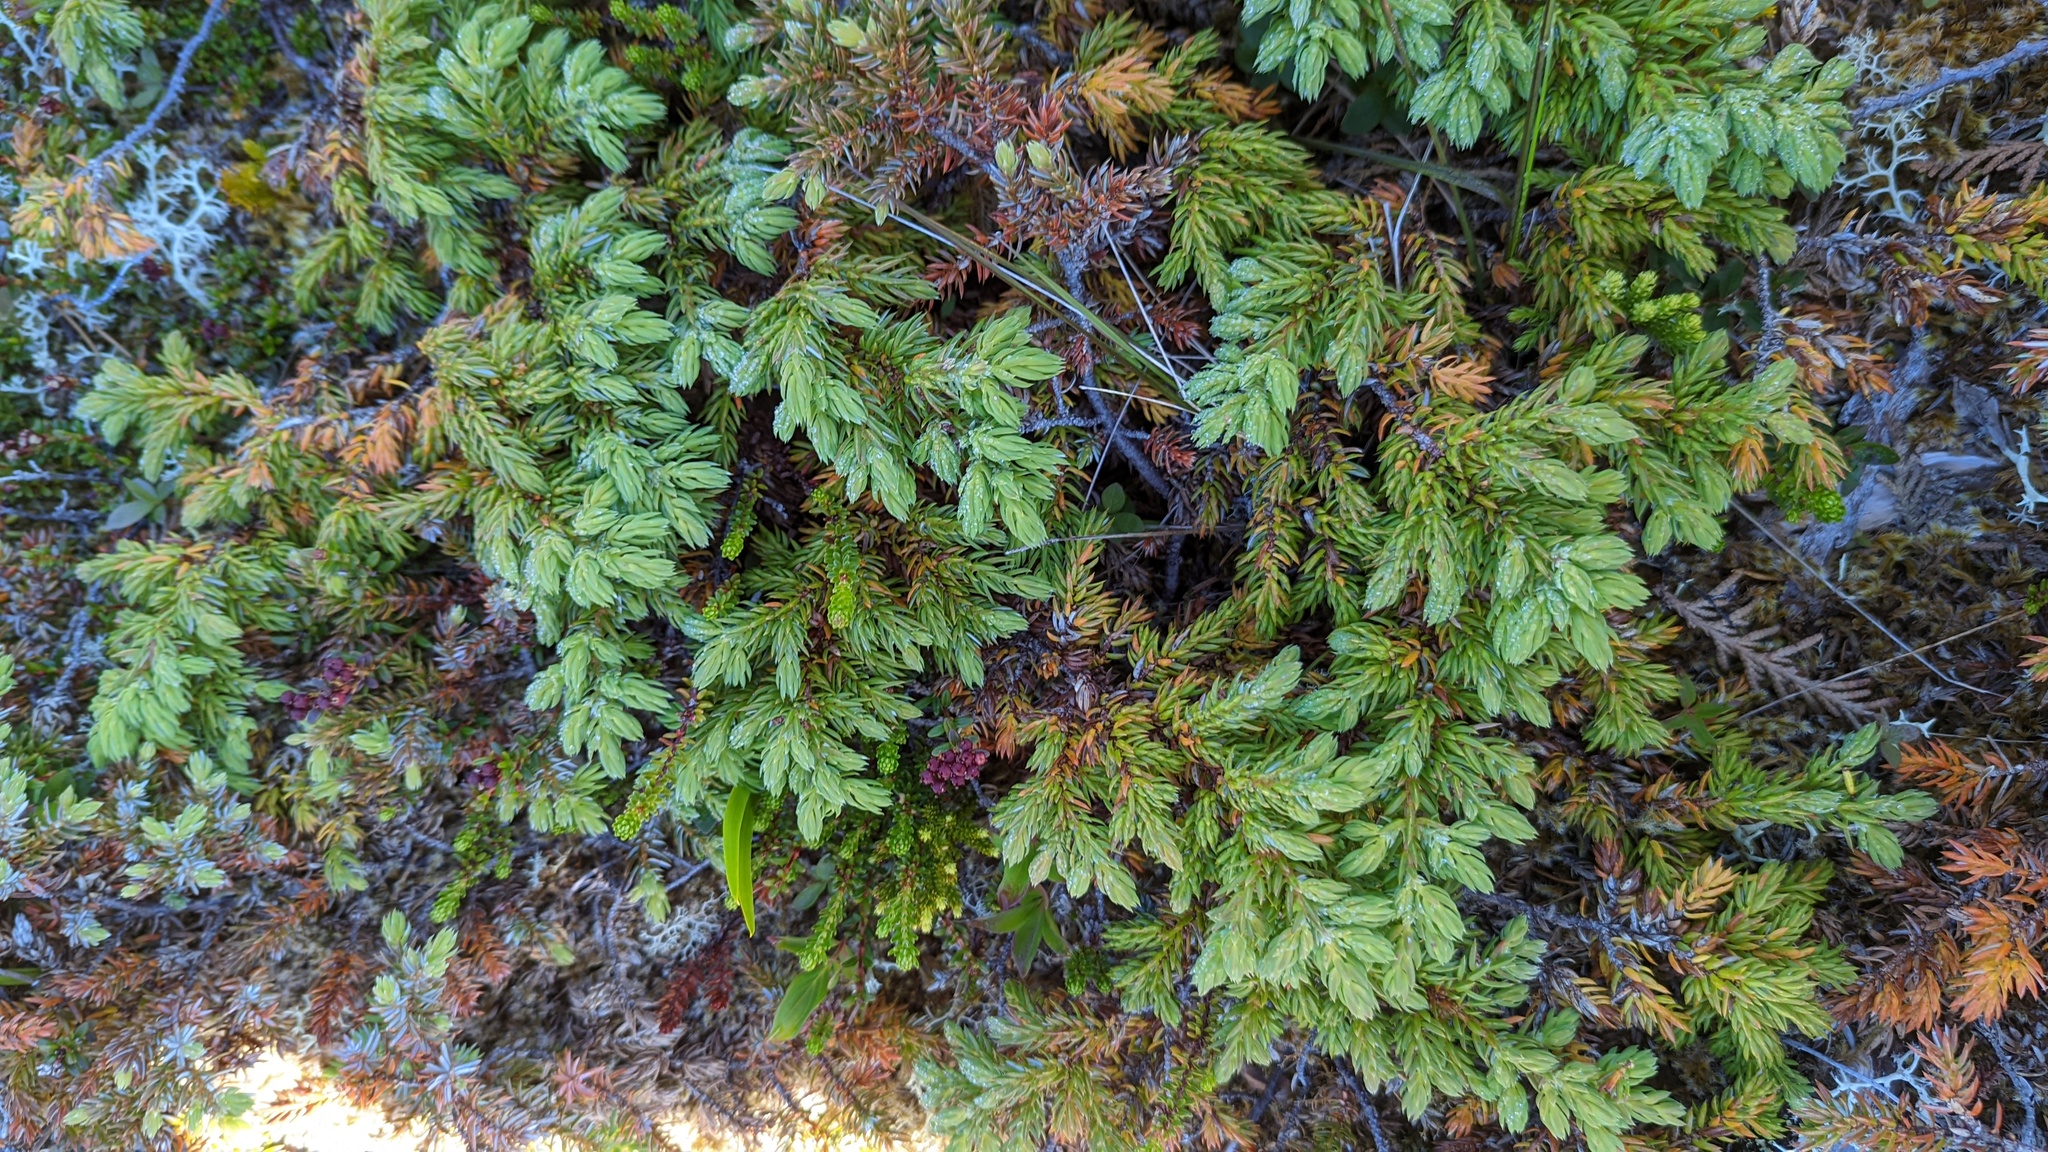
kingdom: Plantae
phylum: Tracheophyta
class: Pinopsida
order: Pinales
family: Cupressaceae
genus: Juniperus
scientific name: Juniperus communis
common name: Common juniper
